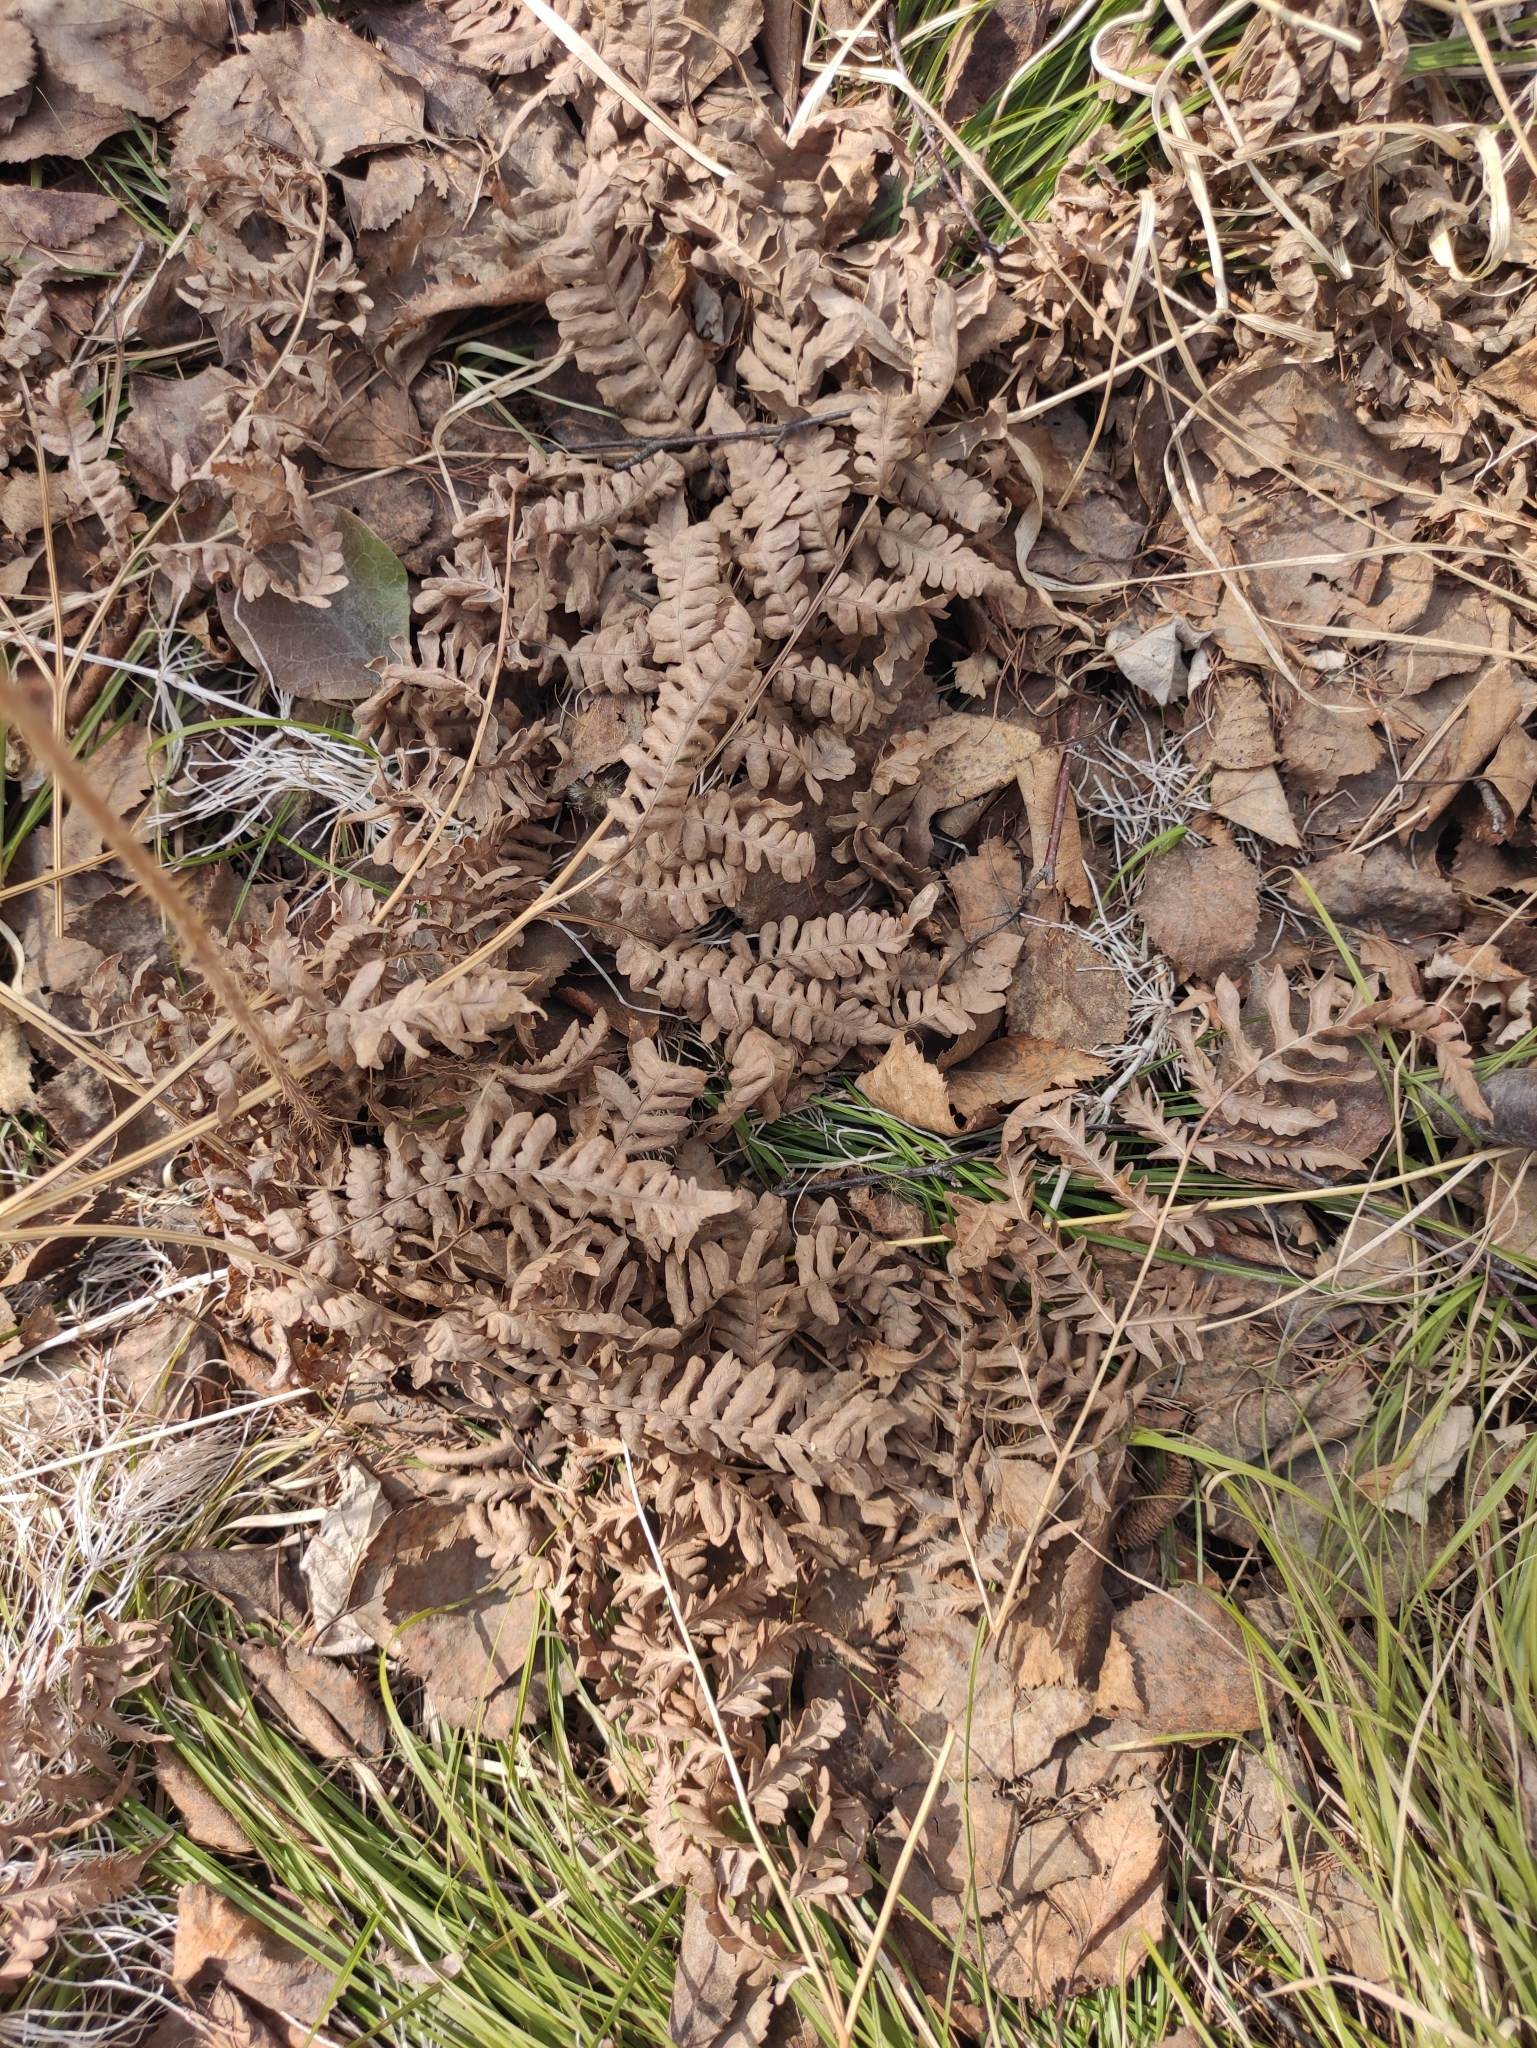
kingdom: Plantae
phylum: Tracheophyta
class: Polypodiopsida
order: Polypodiales
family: Dennstaedtiaceae
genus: Pteridium
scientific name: Pteridium aquilinum
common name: Bracken
